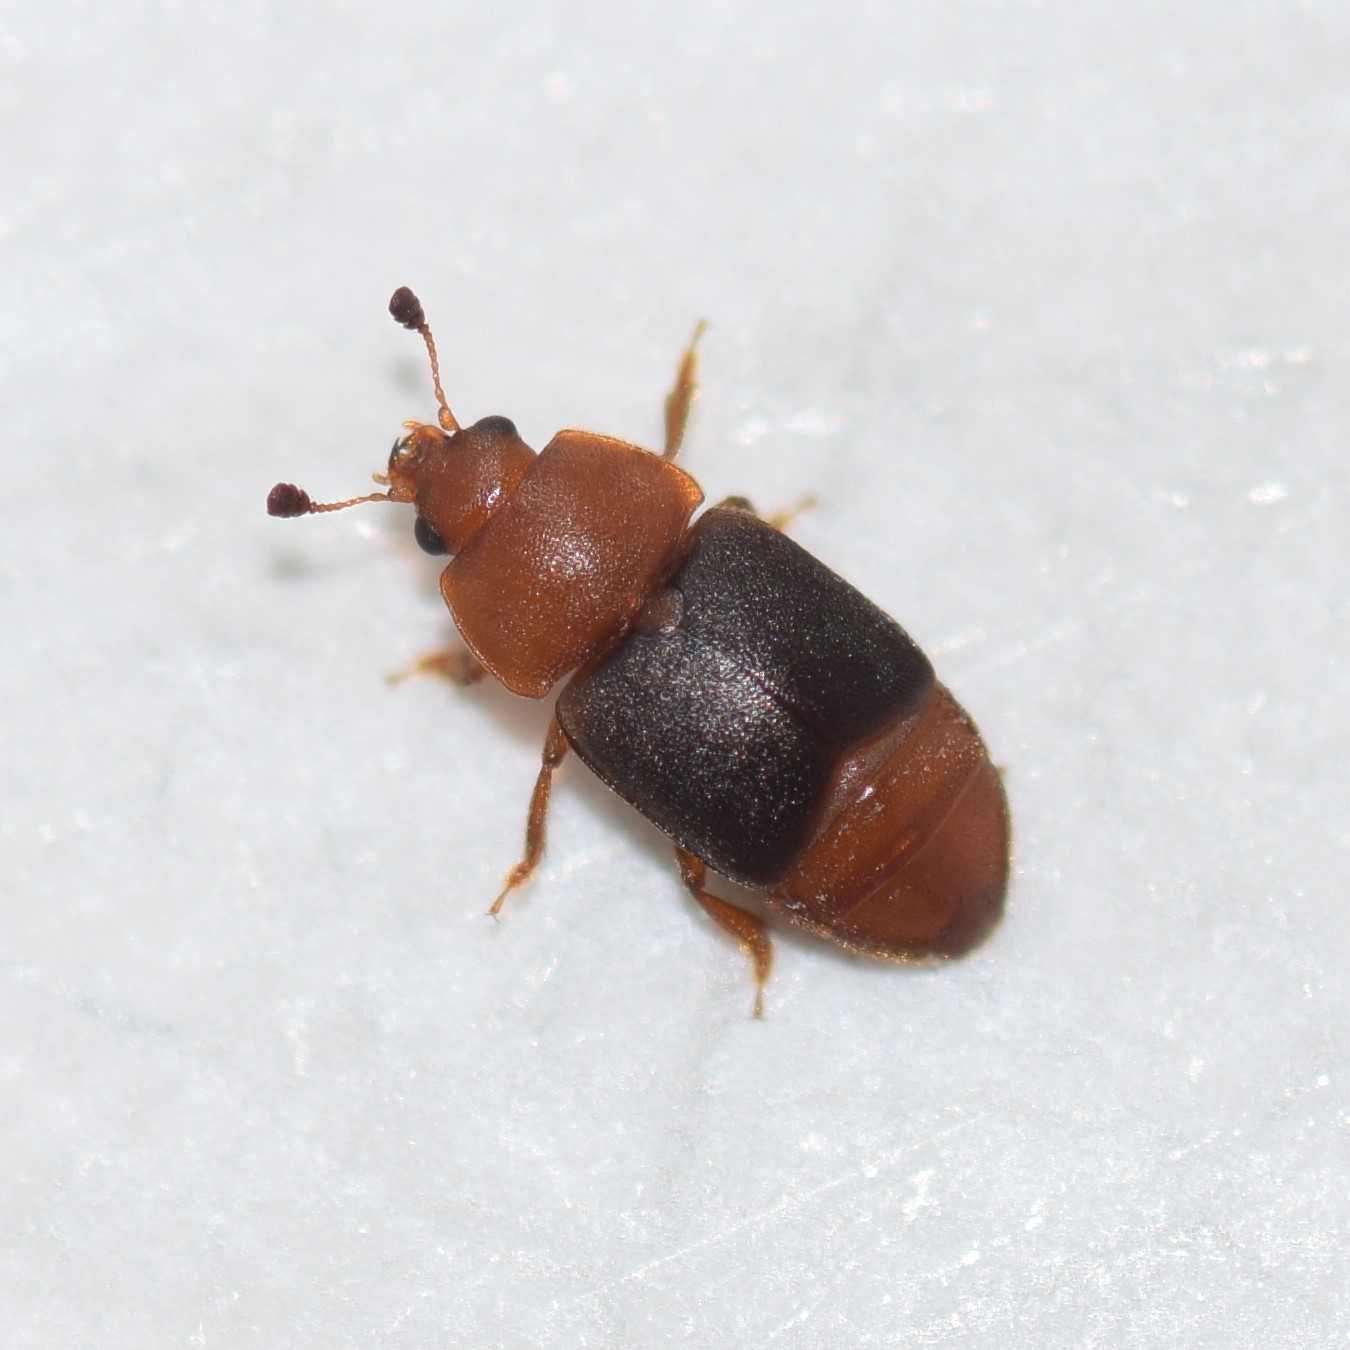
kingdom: Animalia
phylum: Arthropoda
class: Insecta
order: Coleoptera
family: Nitidulidae
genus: Carpophilus
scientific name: Carpophilus
